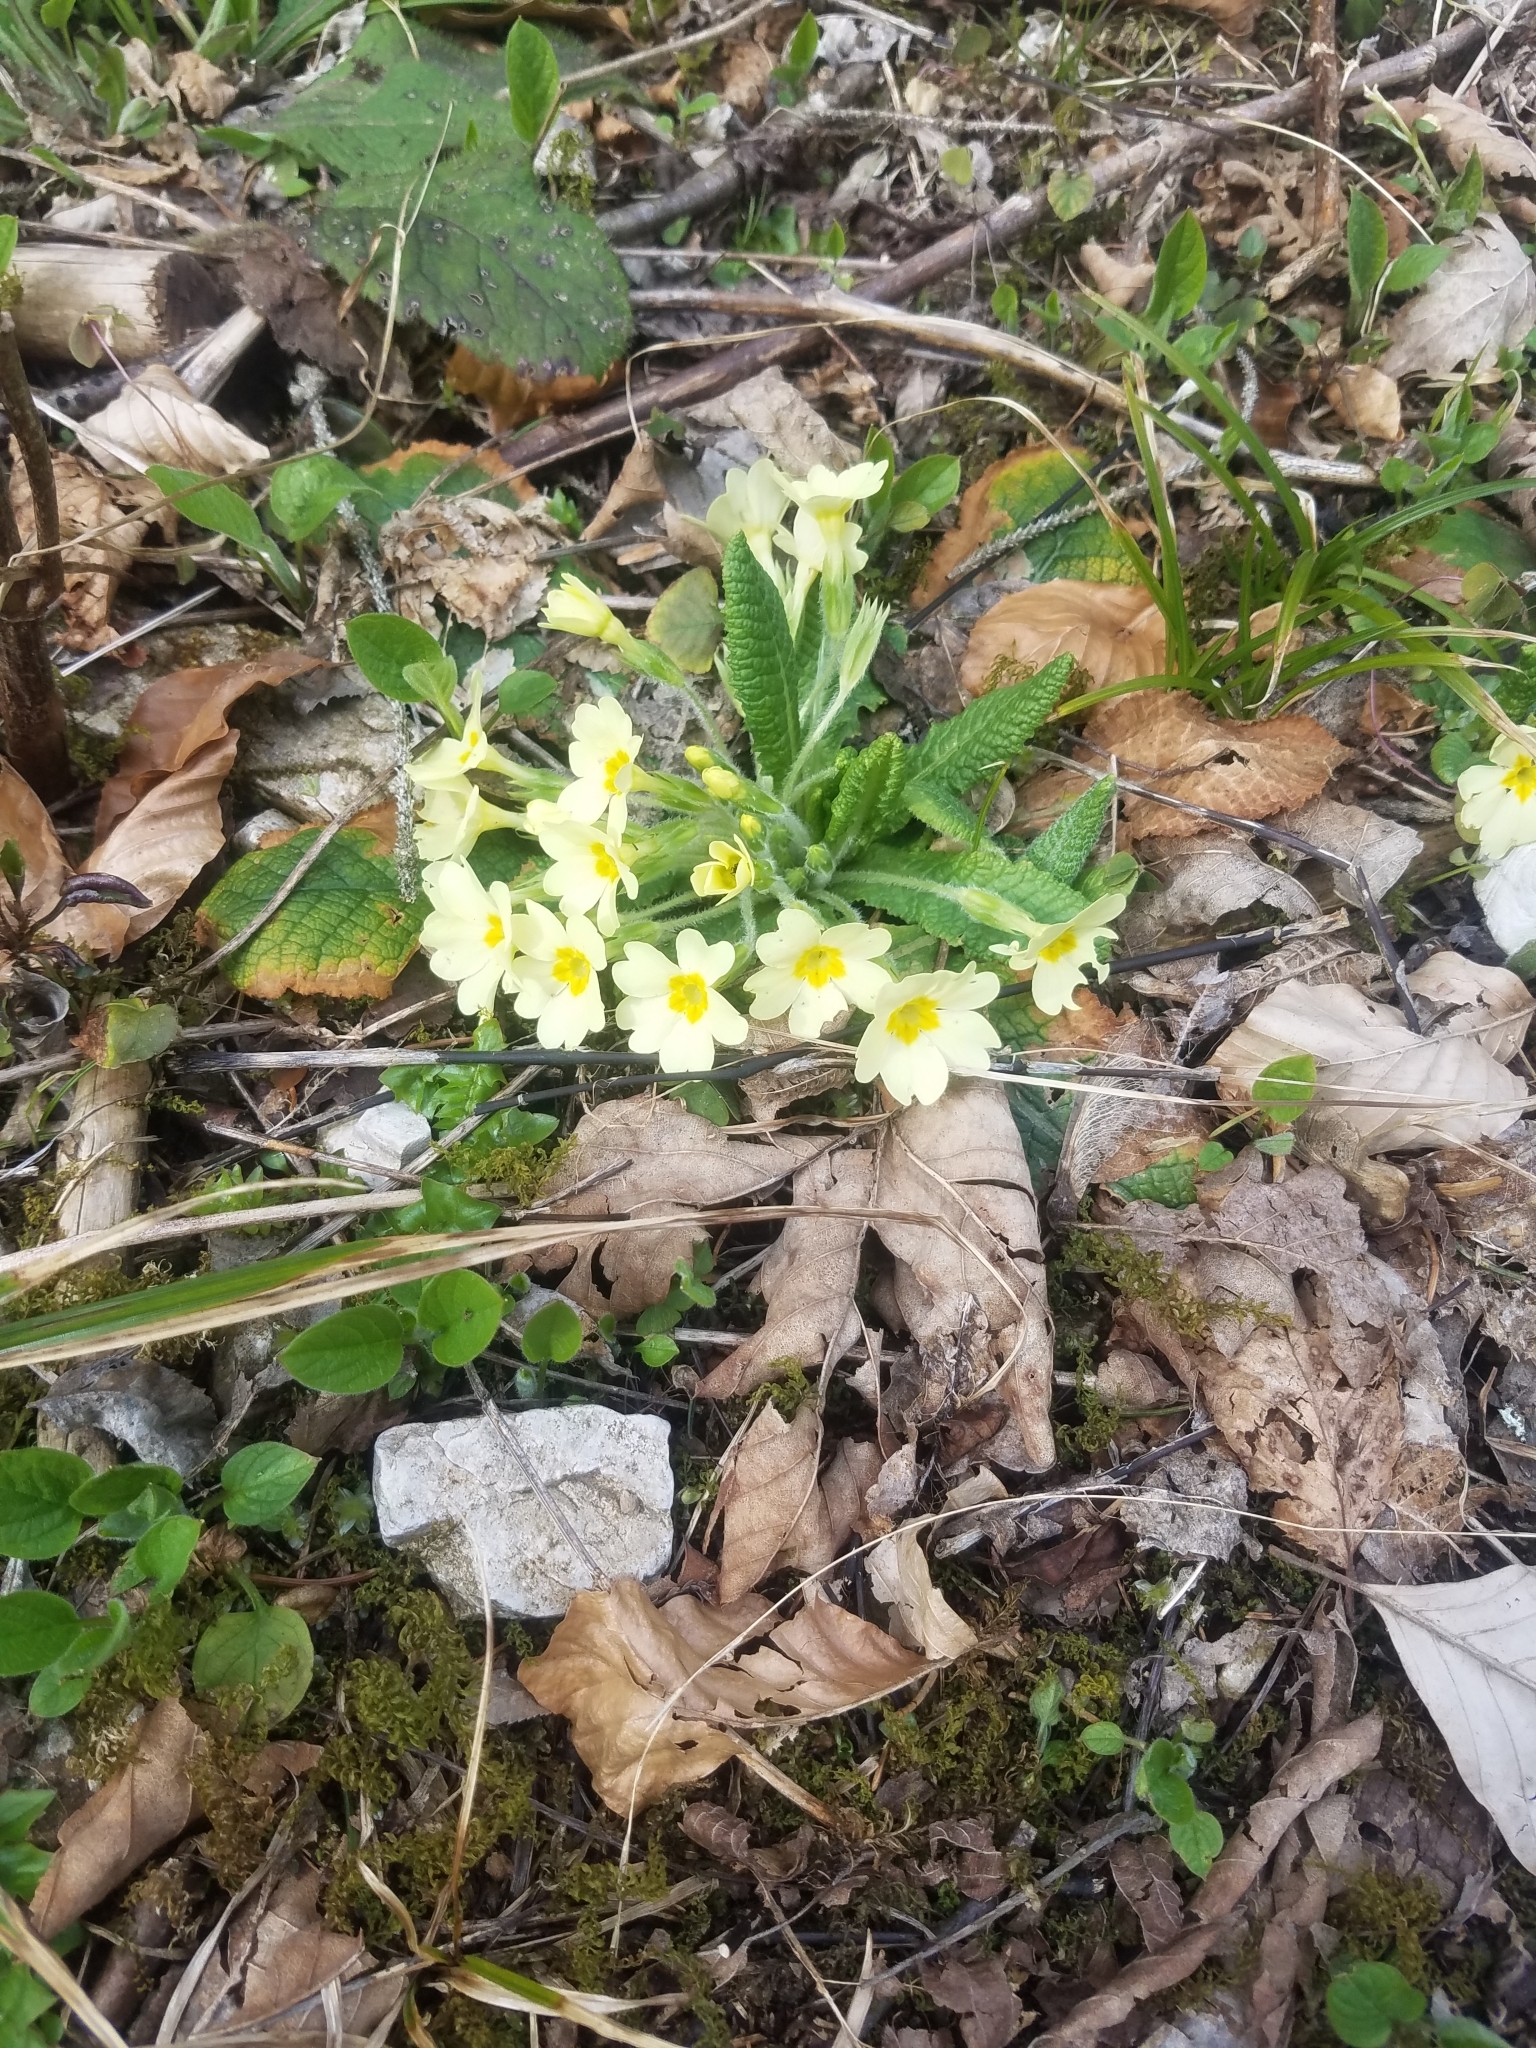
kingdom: Plantae
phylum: Tracheophyta
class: Magnoliopsida
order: Ericales
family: Primulaceae
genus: Primula
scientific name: Primula vulgaris
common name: Primrose
